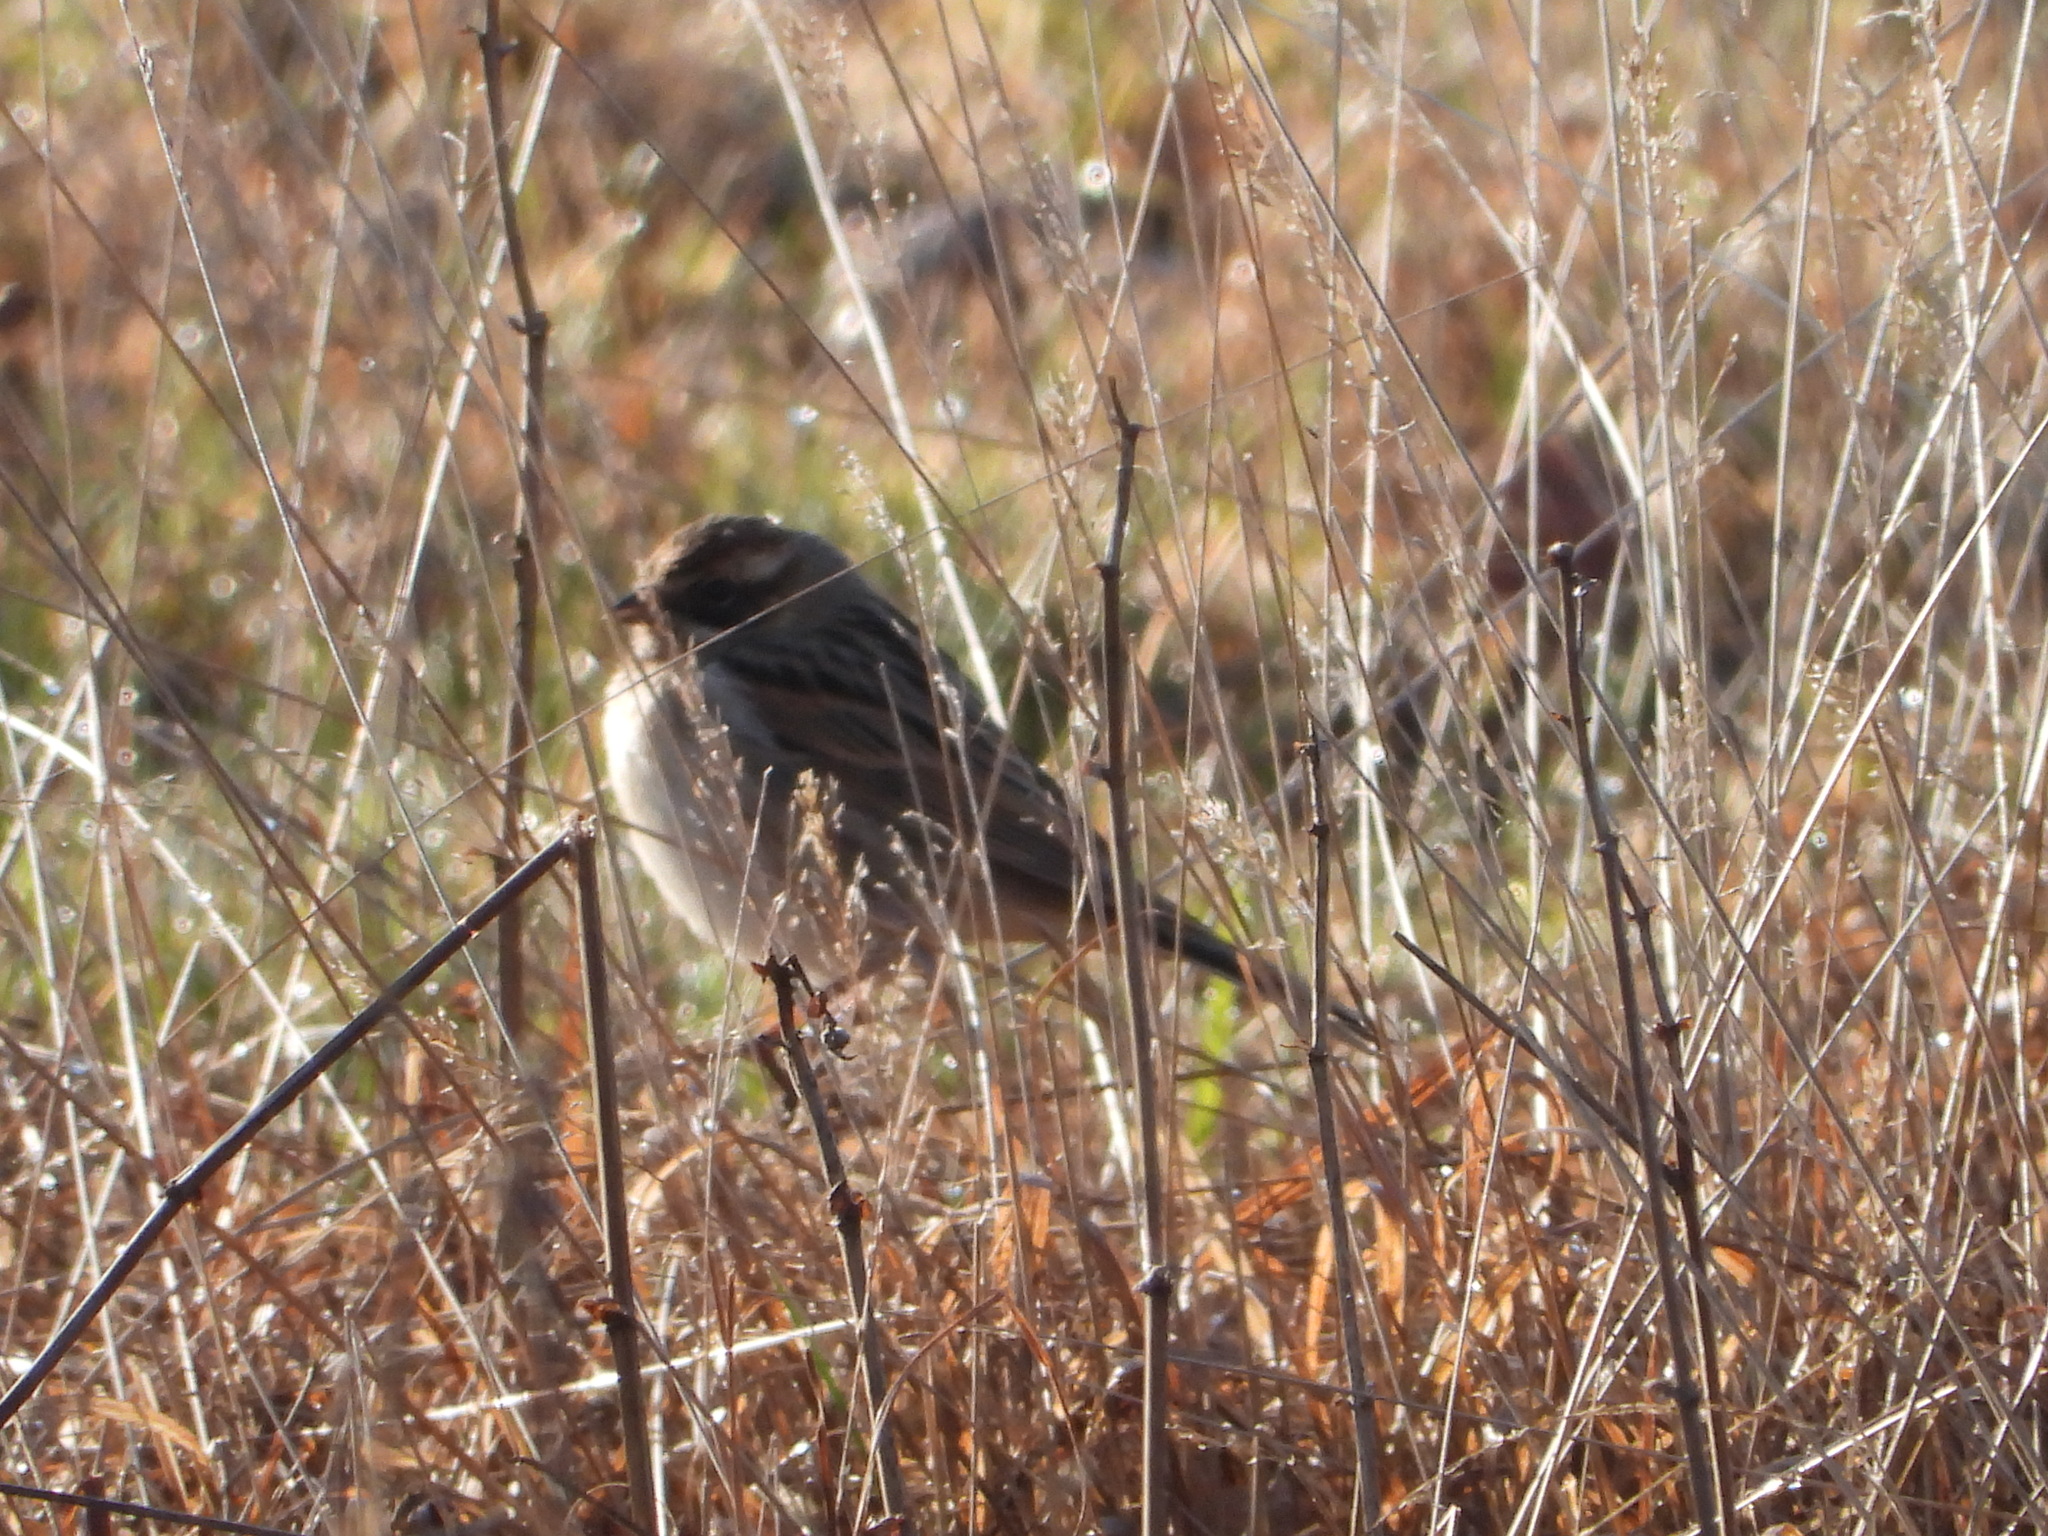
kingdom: Animalia
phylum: Chordata
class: Aves
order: Passeriformes
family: Emberizidae
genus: Emberiza
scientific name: Emberiza schoeniclus
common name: Reed bunting
